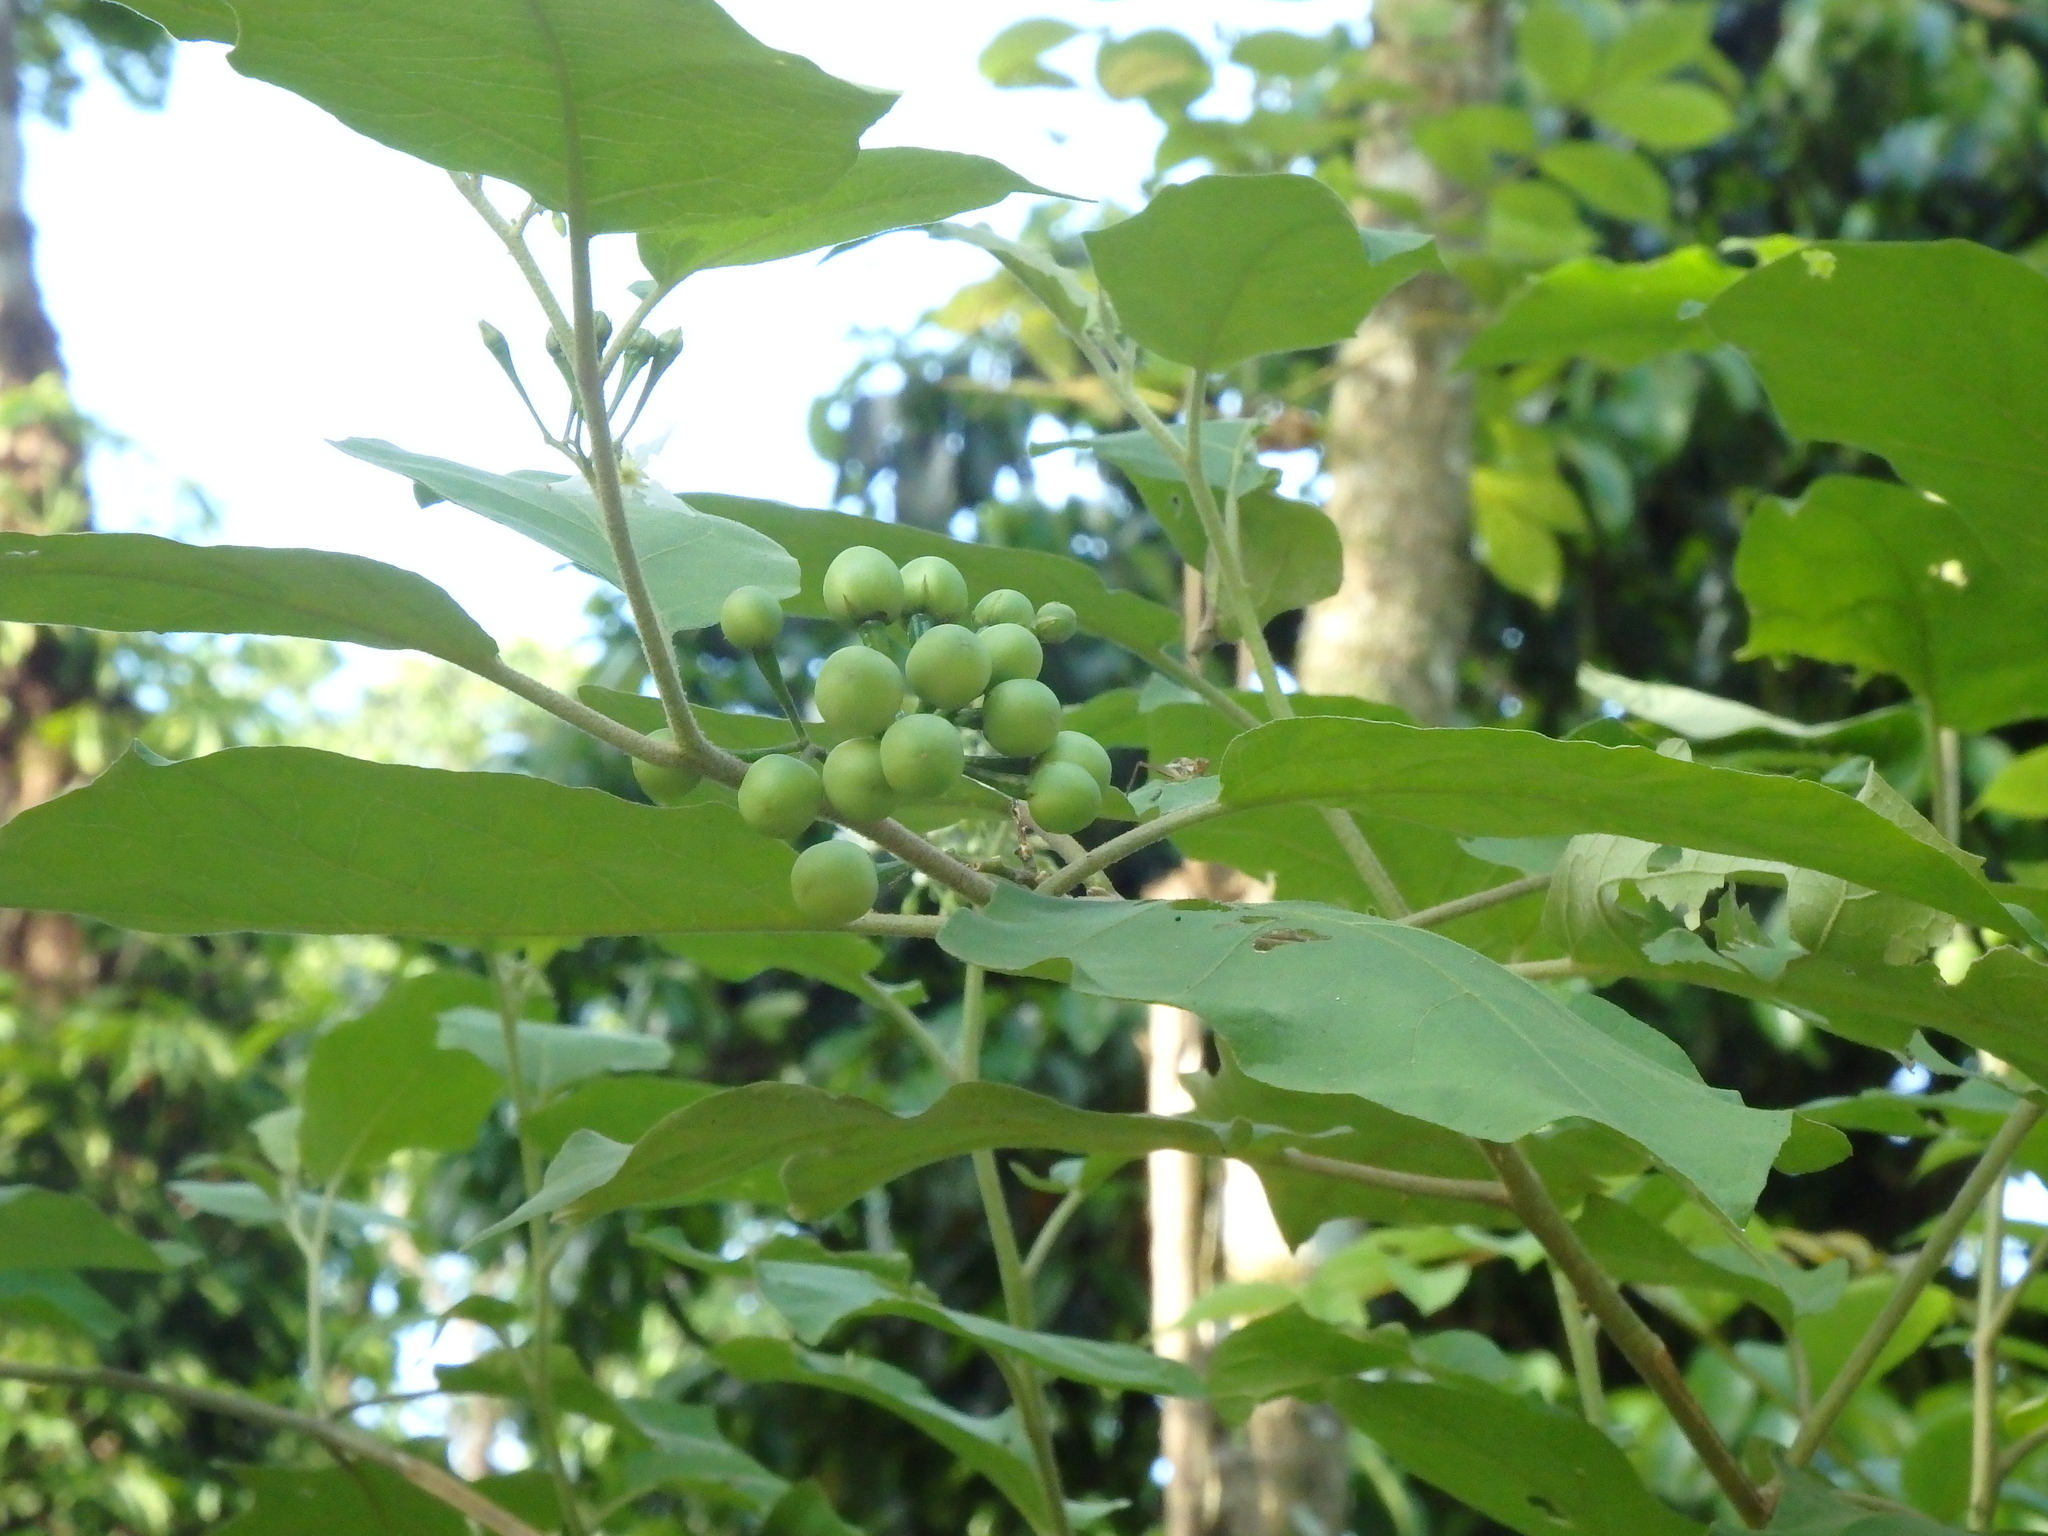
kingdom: Plantae
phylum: Tracheophyta
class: Magnoliopsida
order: Solanales
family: Solanaceae
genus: Solanum
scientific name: Solanum torvum
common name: Turkey berry
